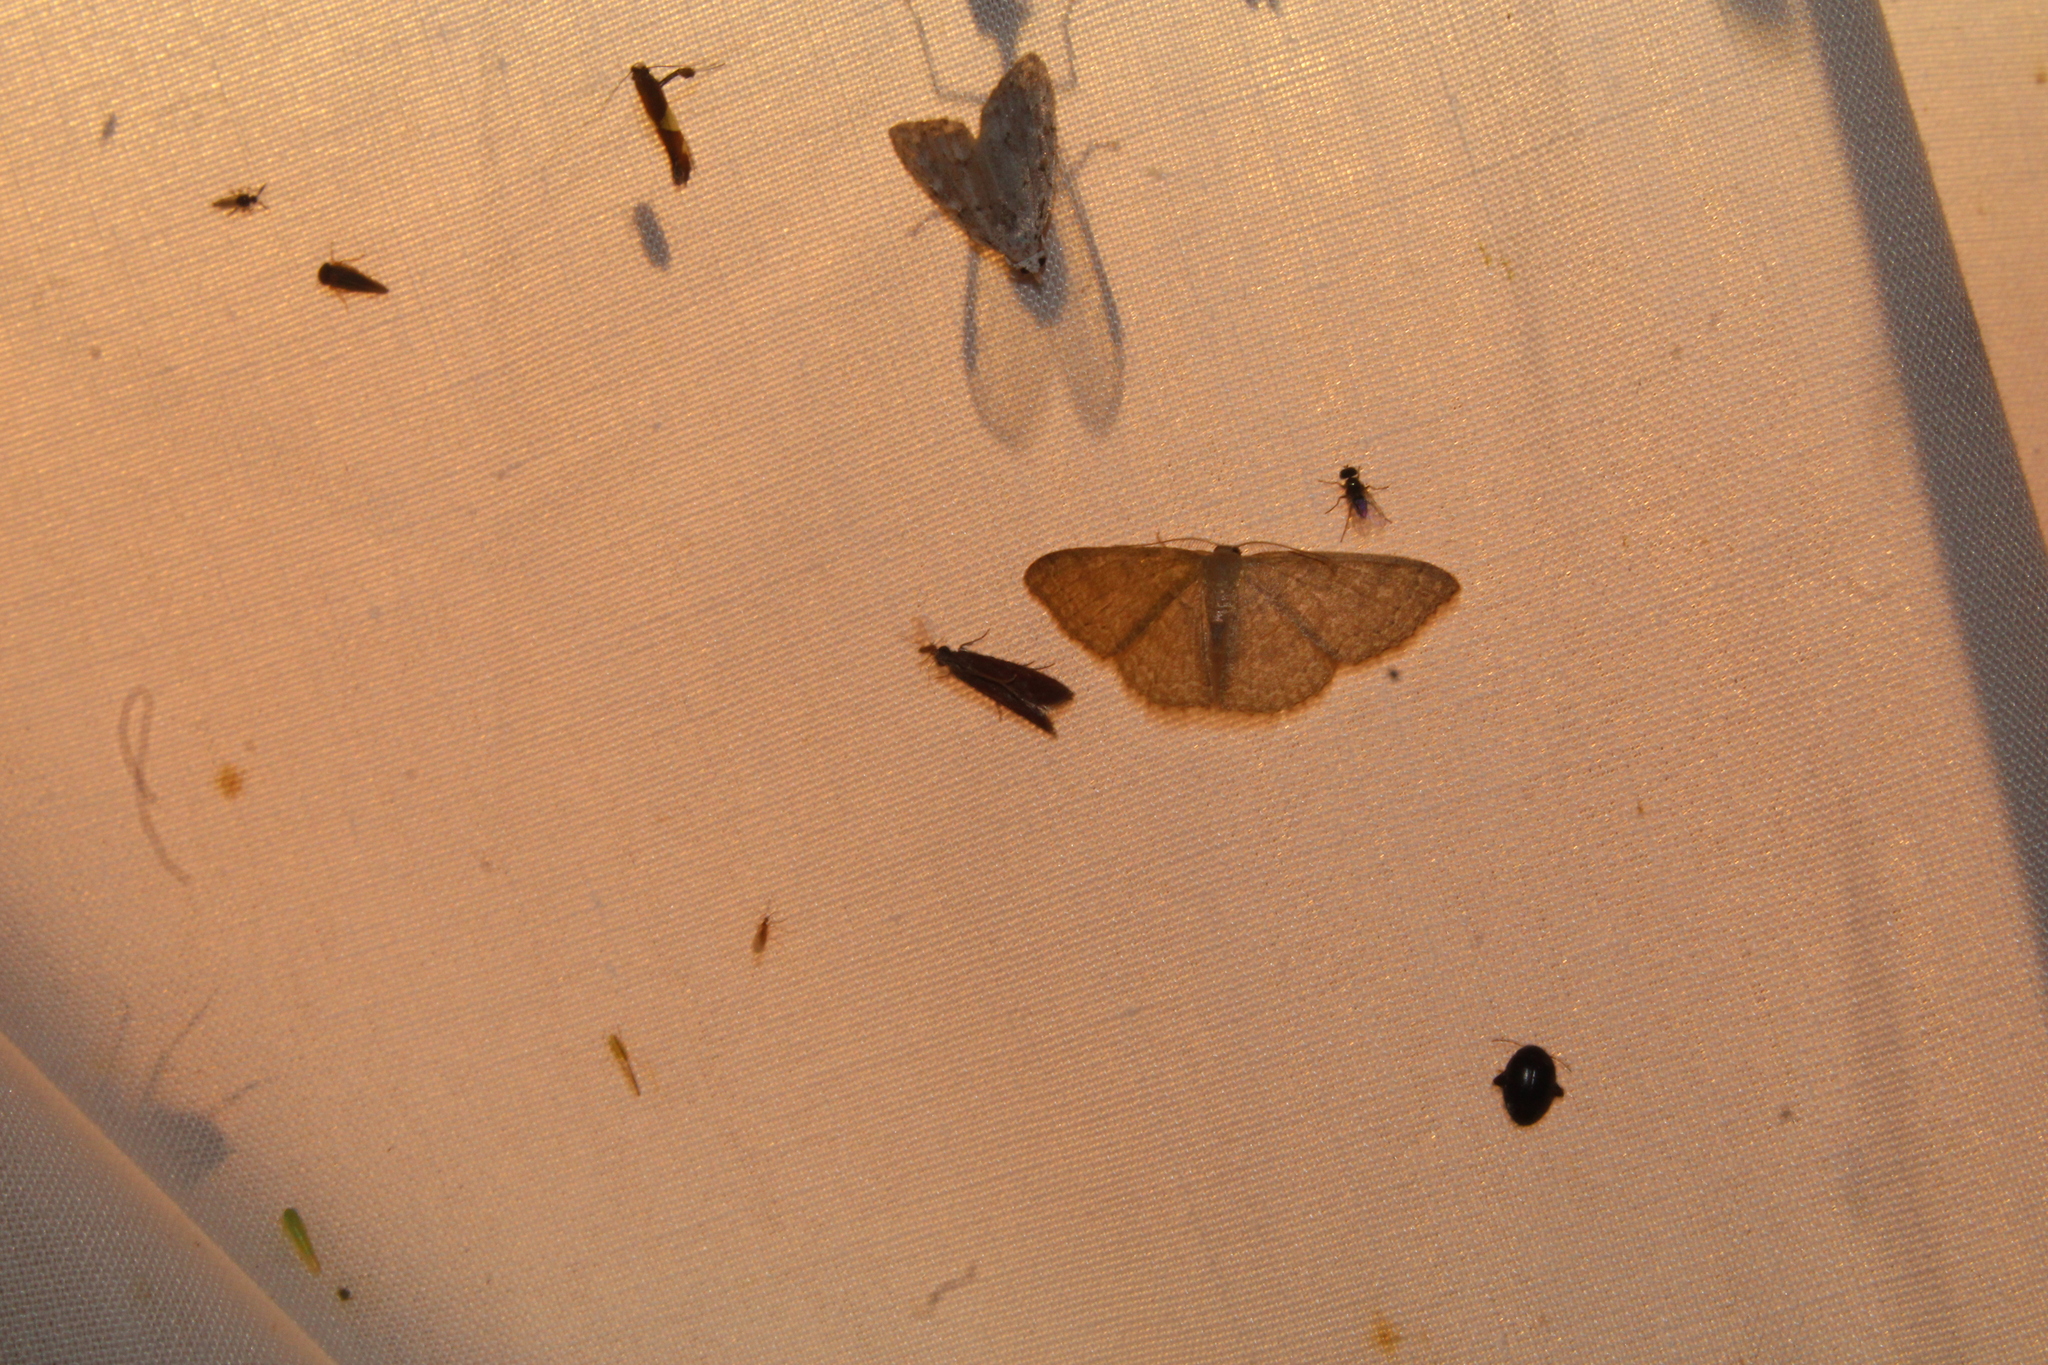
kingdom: Animalia
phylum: Arthropoda
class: Insecta
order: Lepidoptera
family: Geometridae
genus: Pleuroprucha
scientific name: Pleuroprucha insulsaria
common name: Common tan wave
